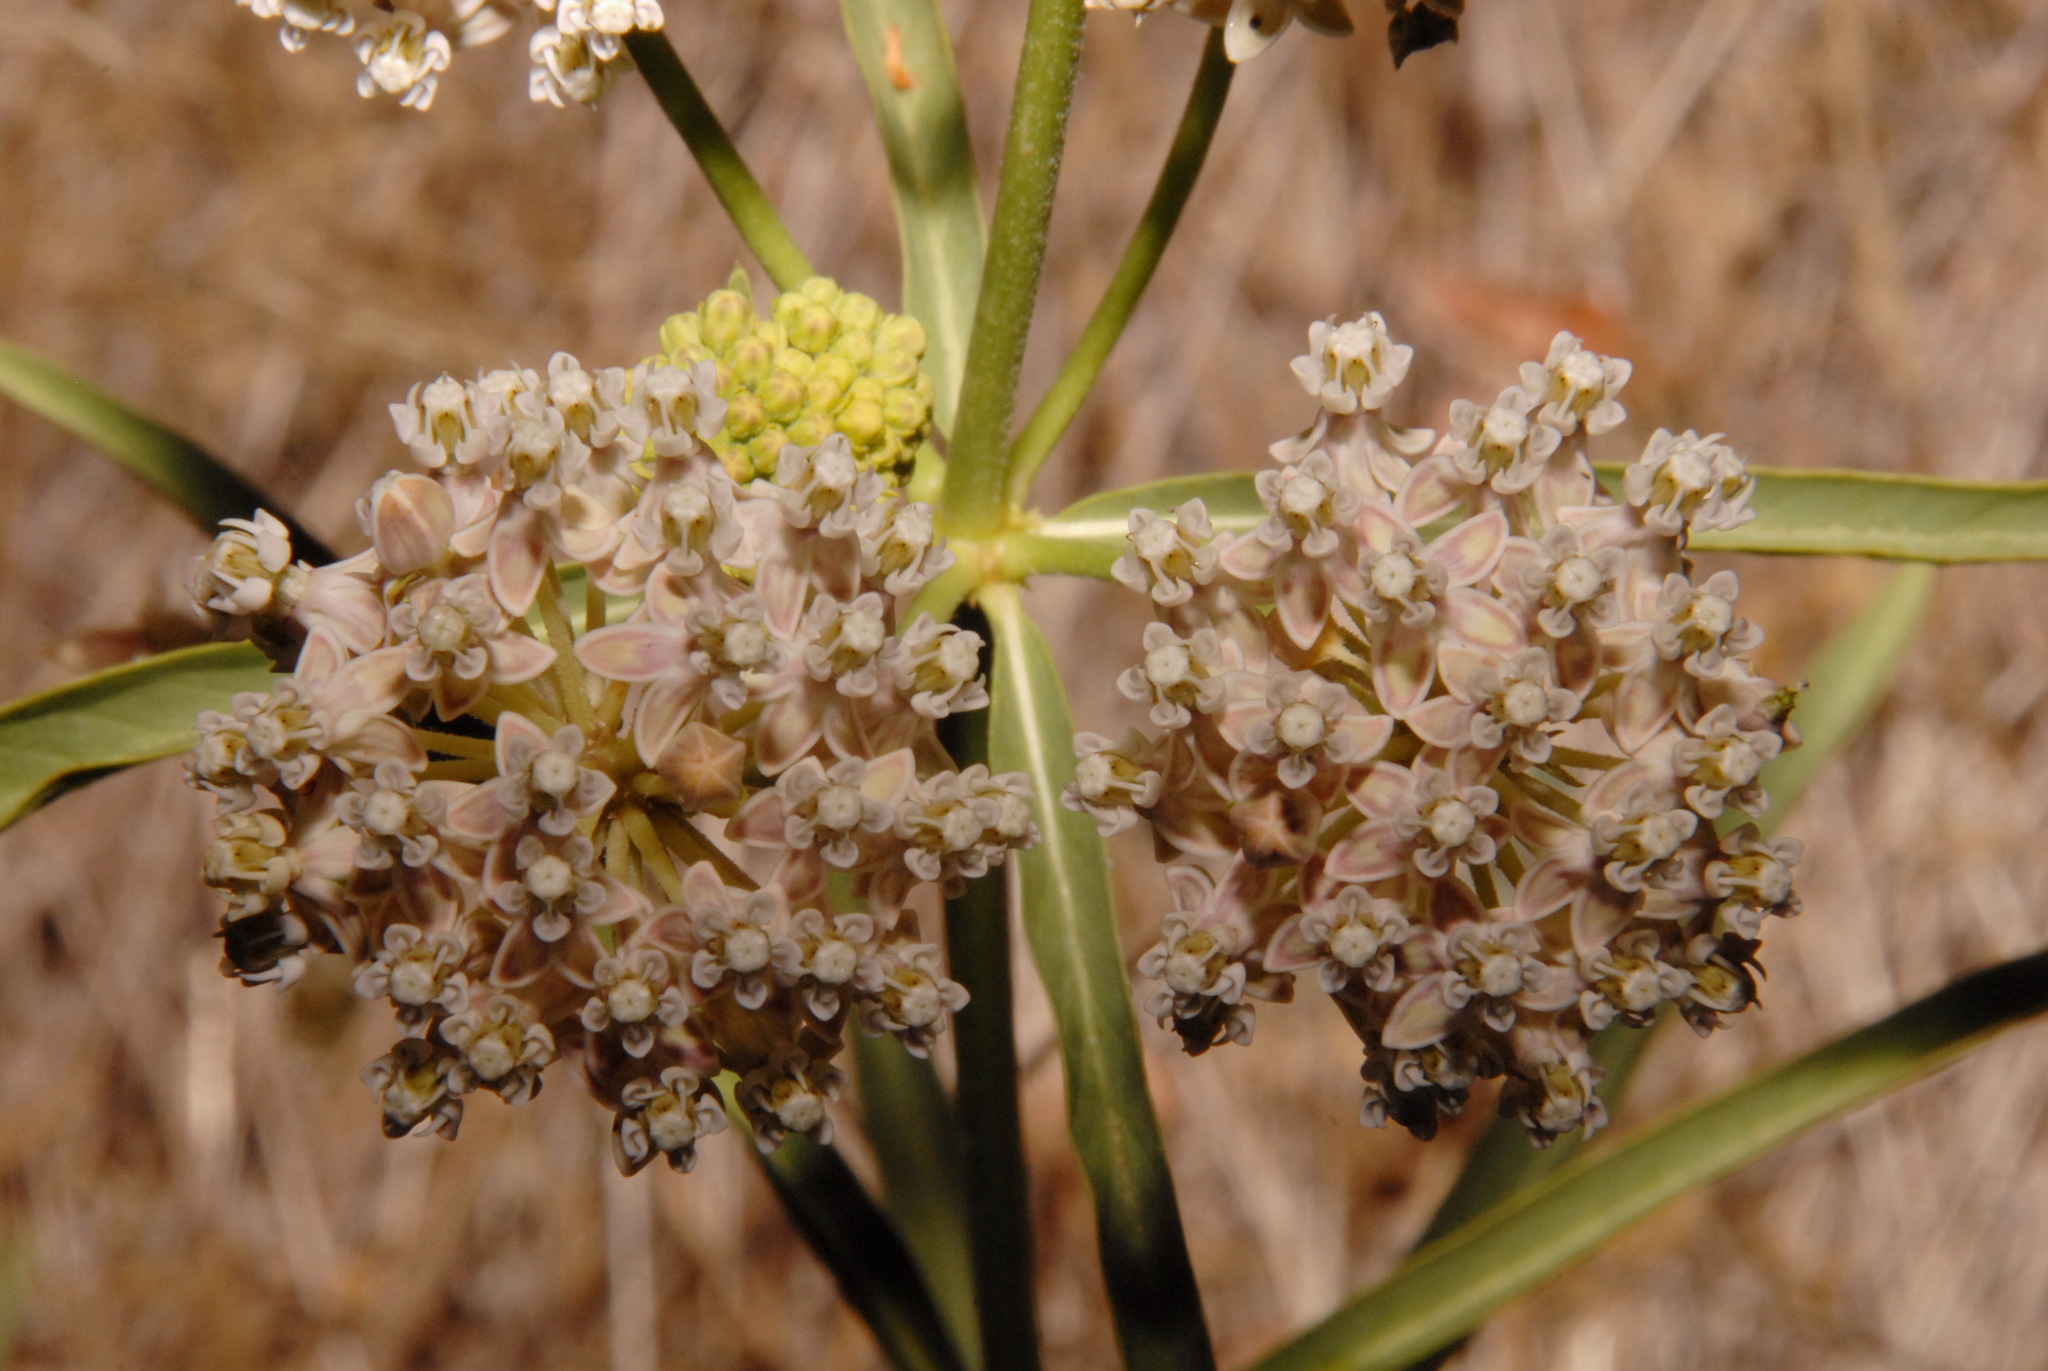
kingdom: Plantae
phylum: Tracheophyta
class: Magnoliopsida
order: Gentianales
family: Apocynaceae
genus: Asclepias
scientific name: Asclepias fascicularis
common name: Mexican milkweed
